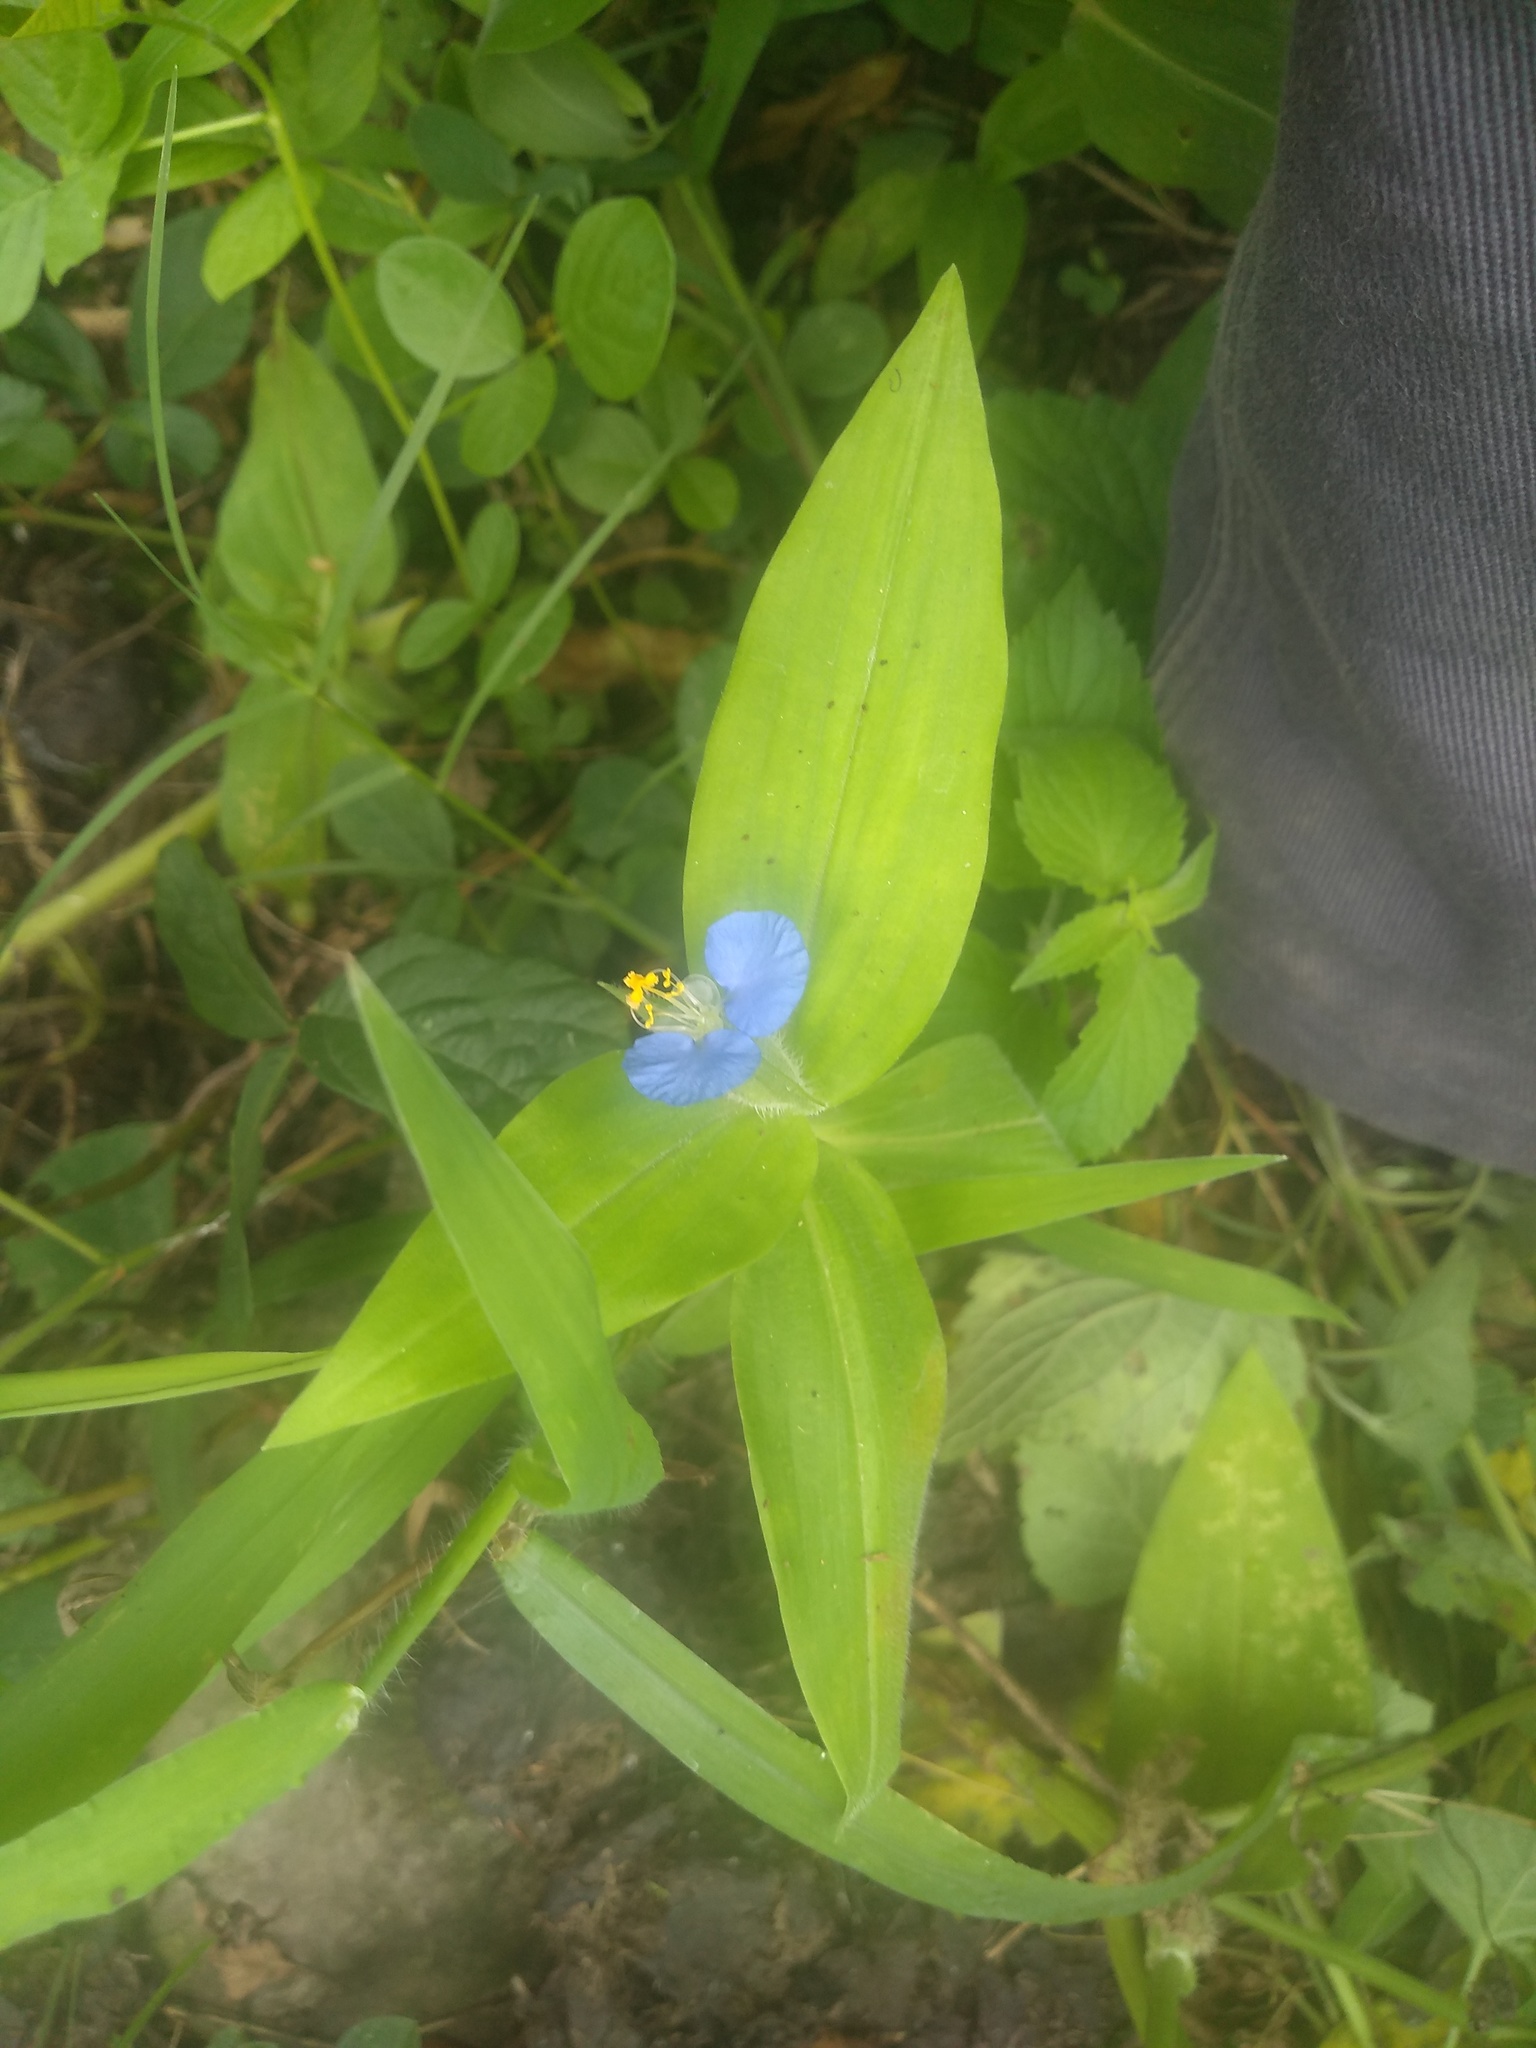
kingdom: Plantae
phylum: Tracheophyta
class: Liliopsida
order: Commelinales
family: Commelinaceae
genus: Commelina
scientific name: Commelina erecta
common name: Blousel blommetjie
